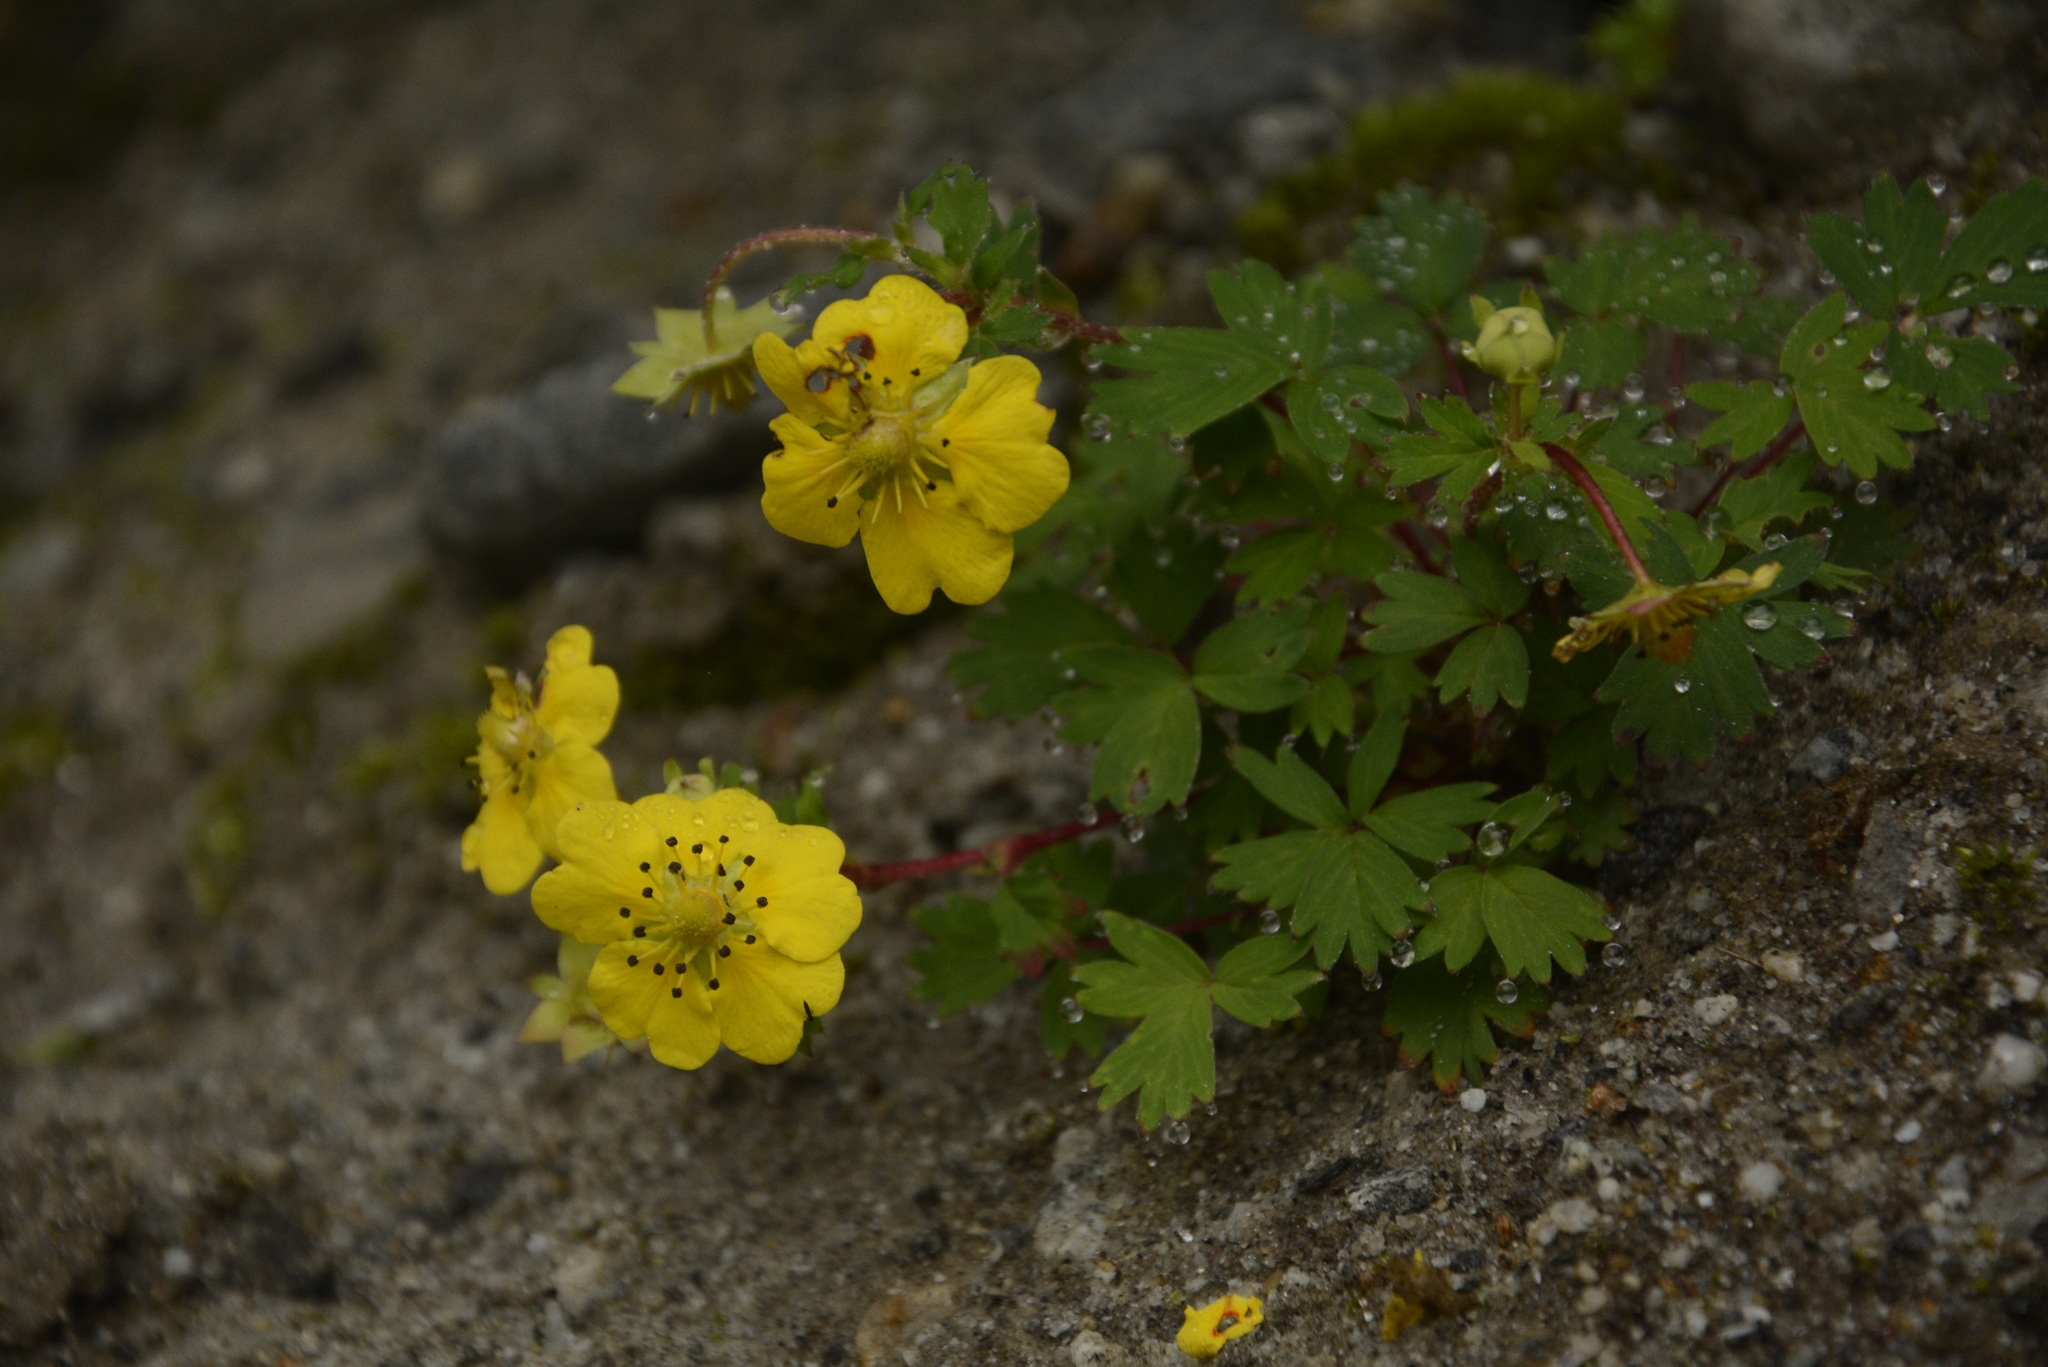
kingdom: Plantae
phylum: Tracheophyta
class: Magnoliopsida
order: Rosales
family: Rosaceae
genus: Potentilla
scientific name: Potentilla eriocarpa
